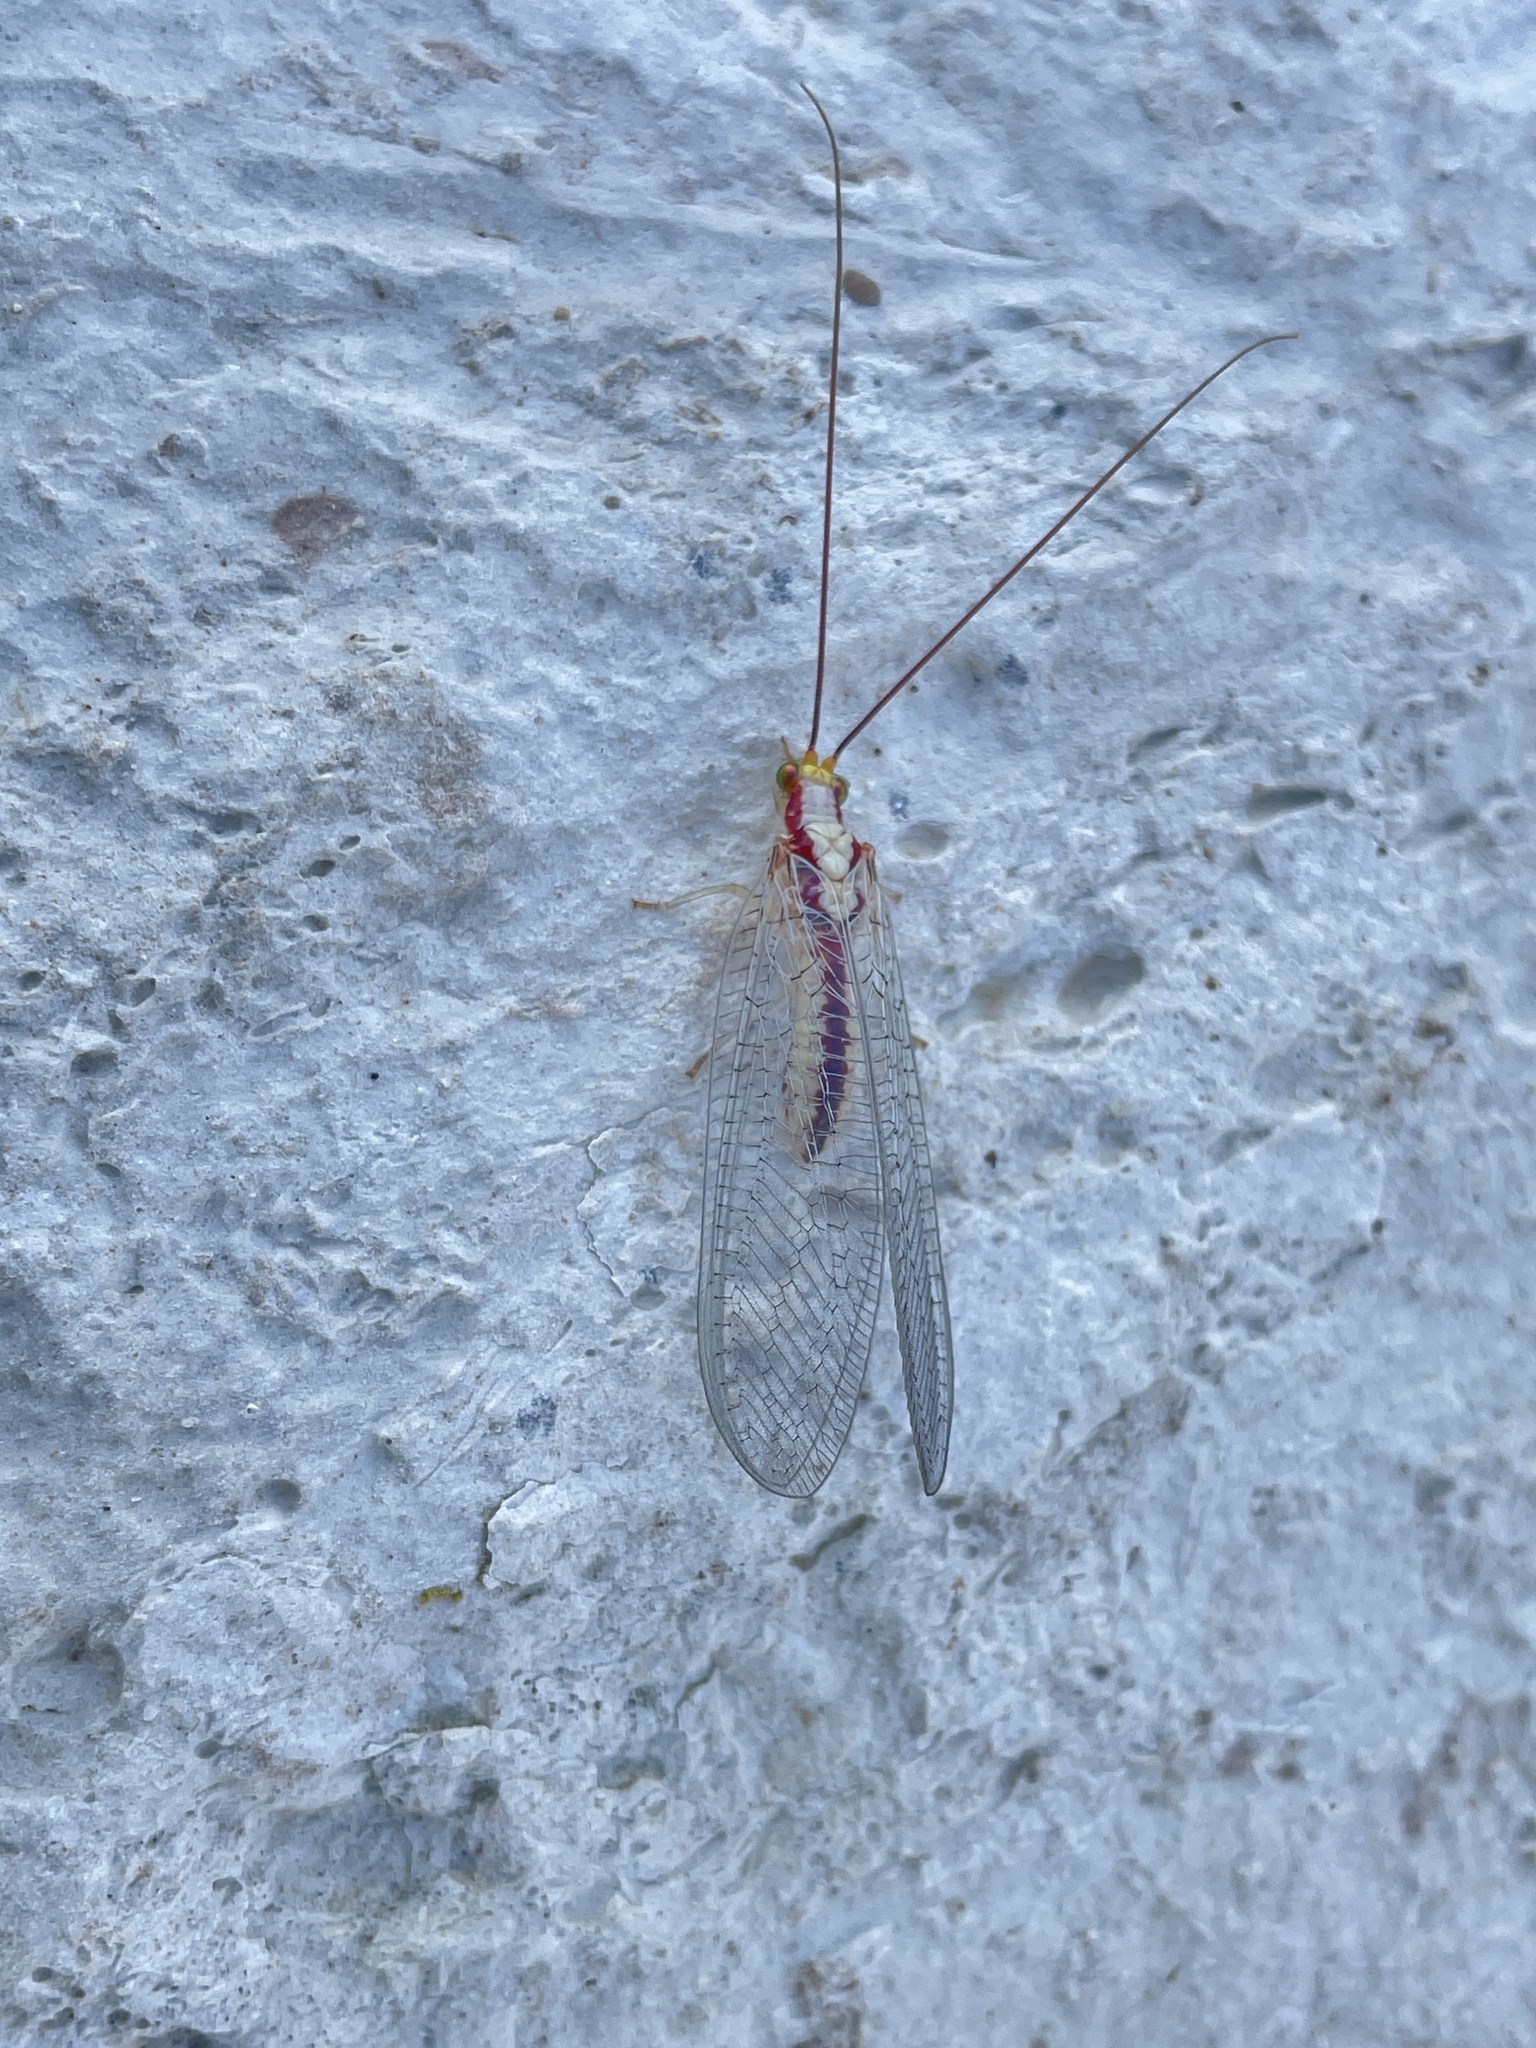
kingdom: Animalia
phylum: Arthropoda
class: Insecta
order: Neuroptera
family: Chrysopidae
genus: Italochrysa
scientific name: Italochrysa italica
